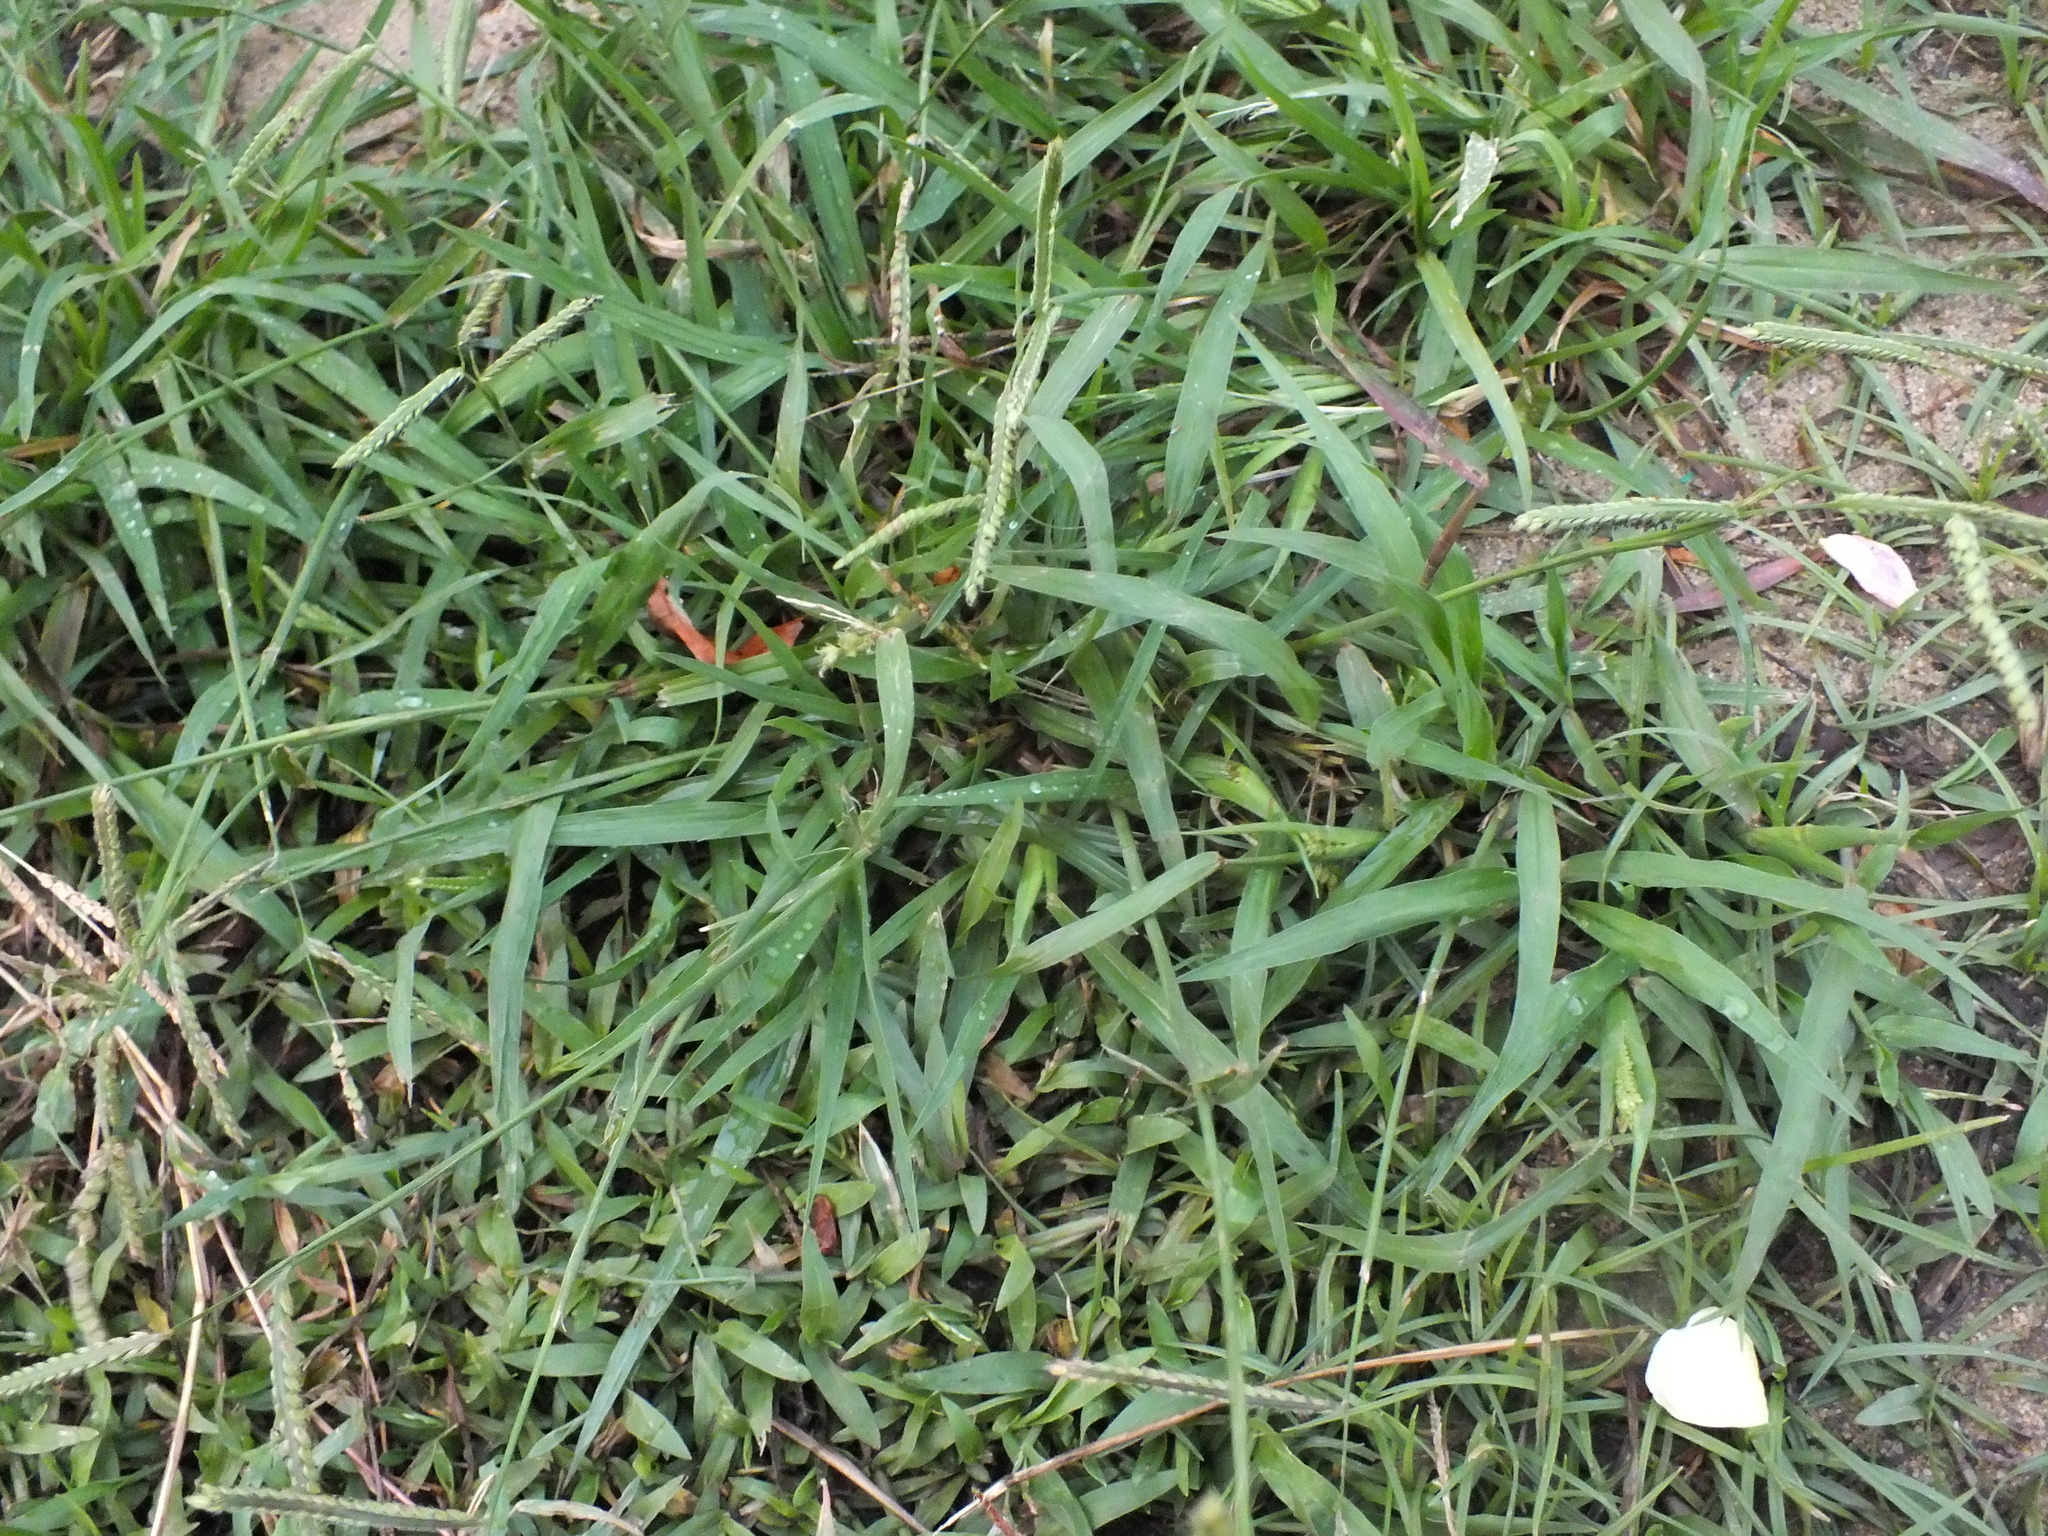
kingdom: Plantae
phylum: Tracheophyta
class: Liliopsida
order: Poales
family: Poaceae
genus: Paspalum
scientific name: Paspalum dilatatum
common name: Dallisgrass
